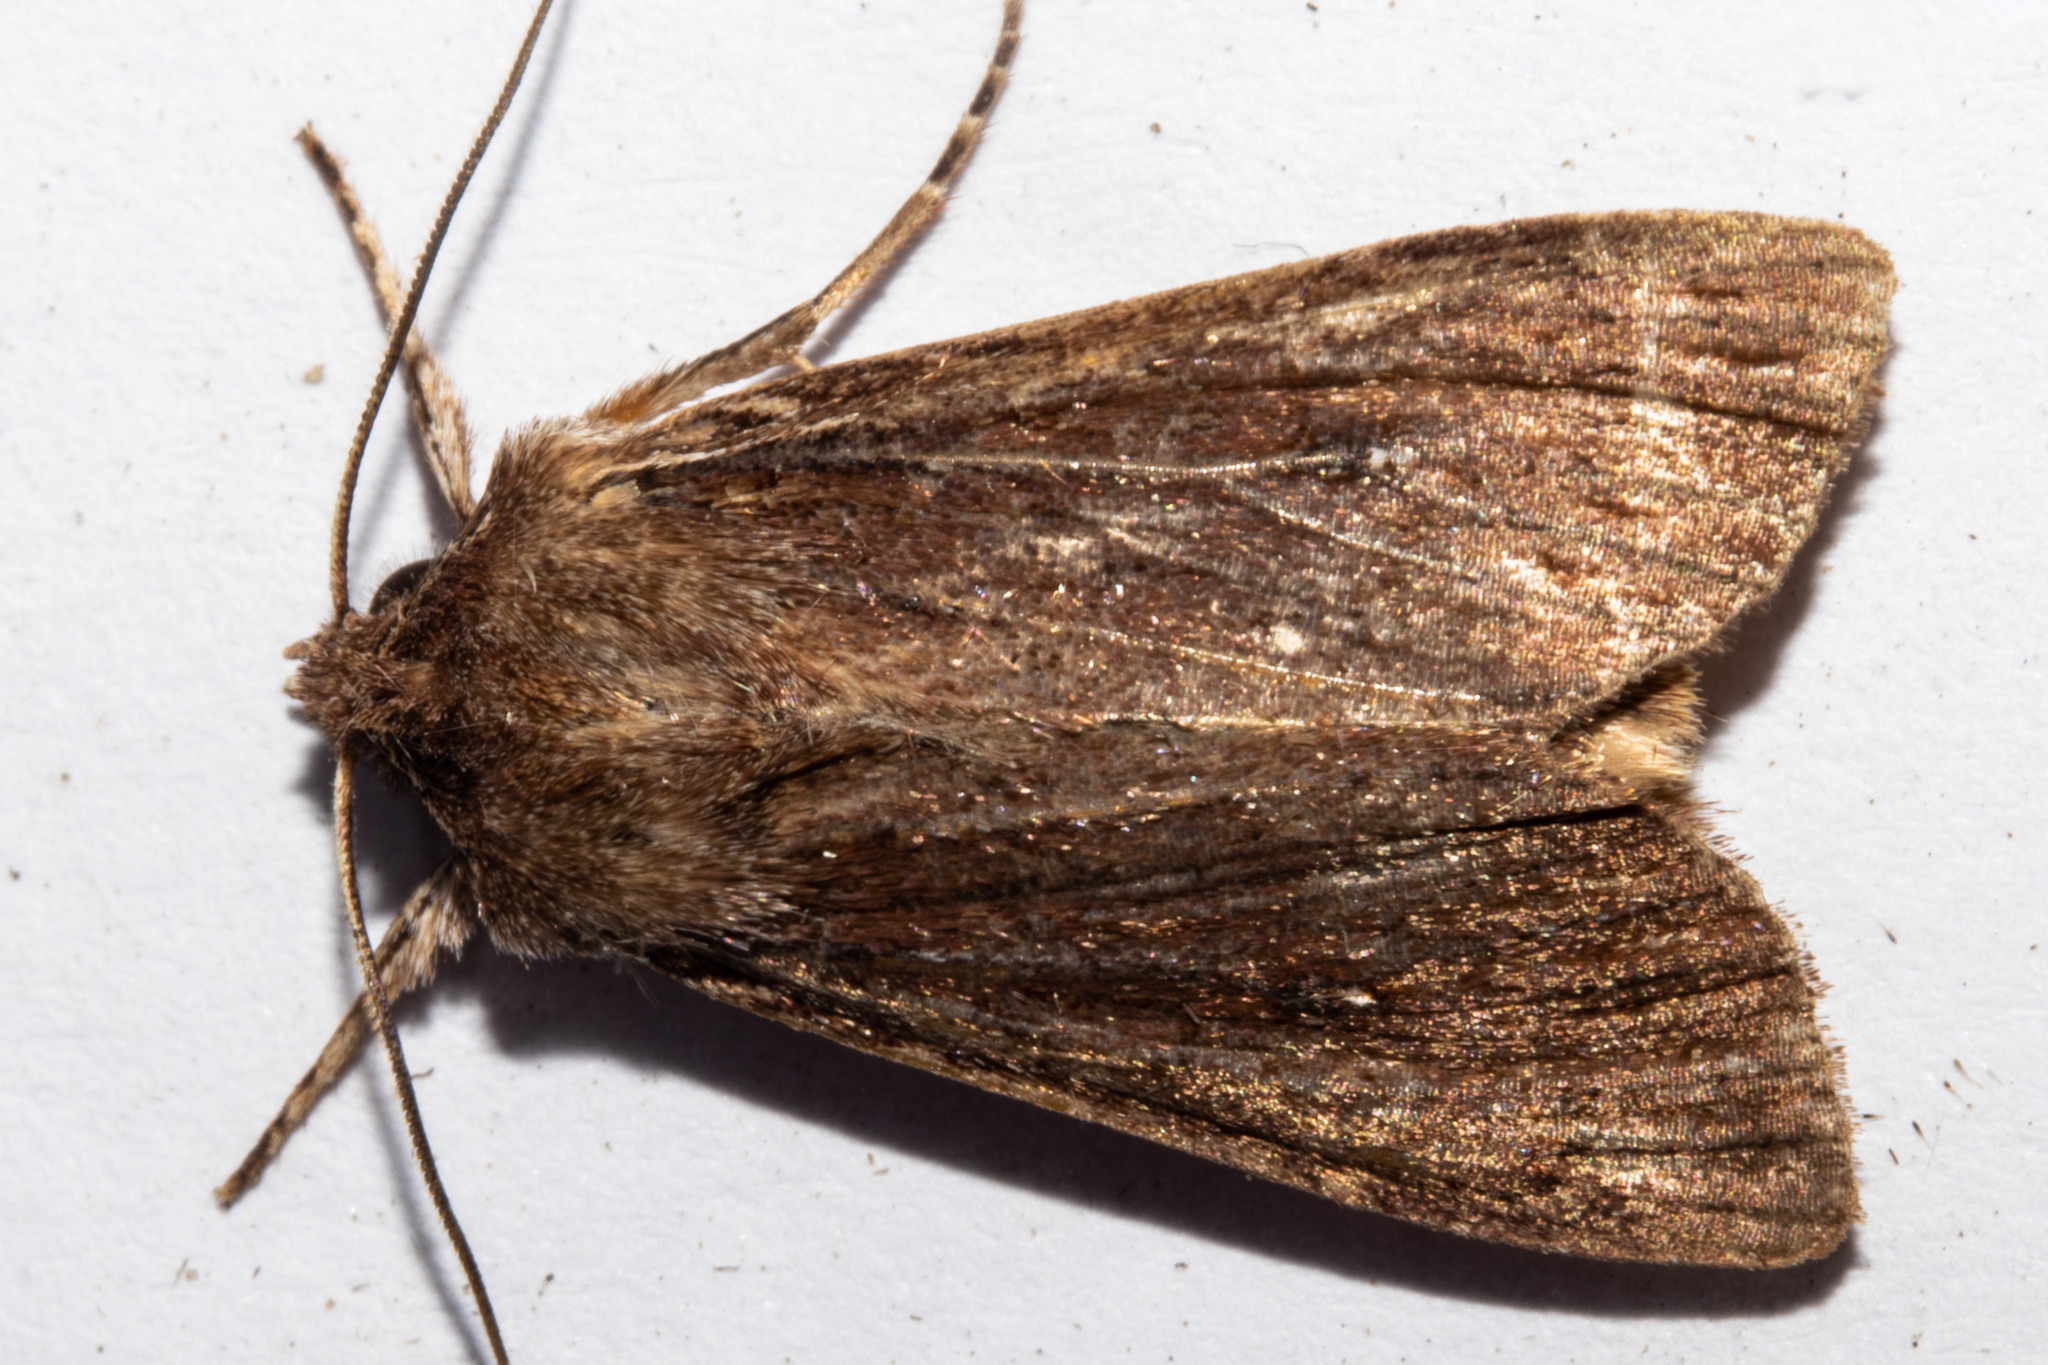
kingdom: Animalia
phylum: Arthropoda
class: Insecta
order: Lepidoptera
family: Noctuidae
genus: Ichneutica
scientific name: Ichneutica
